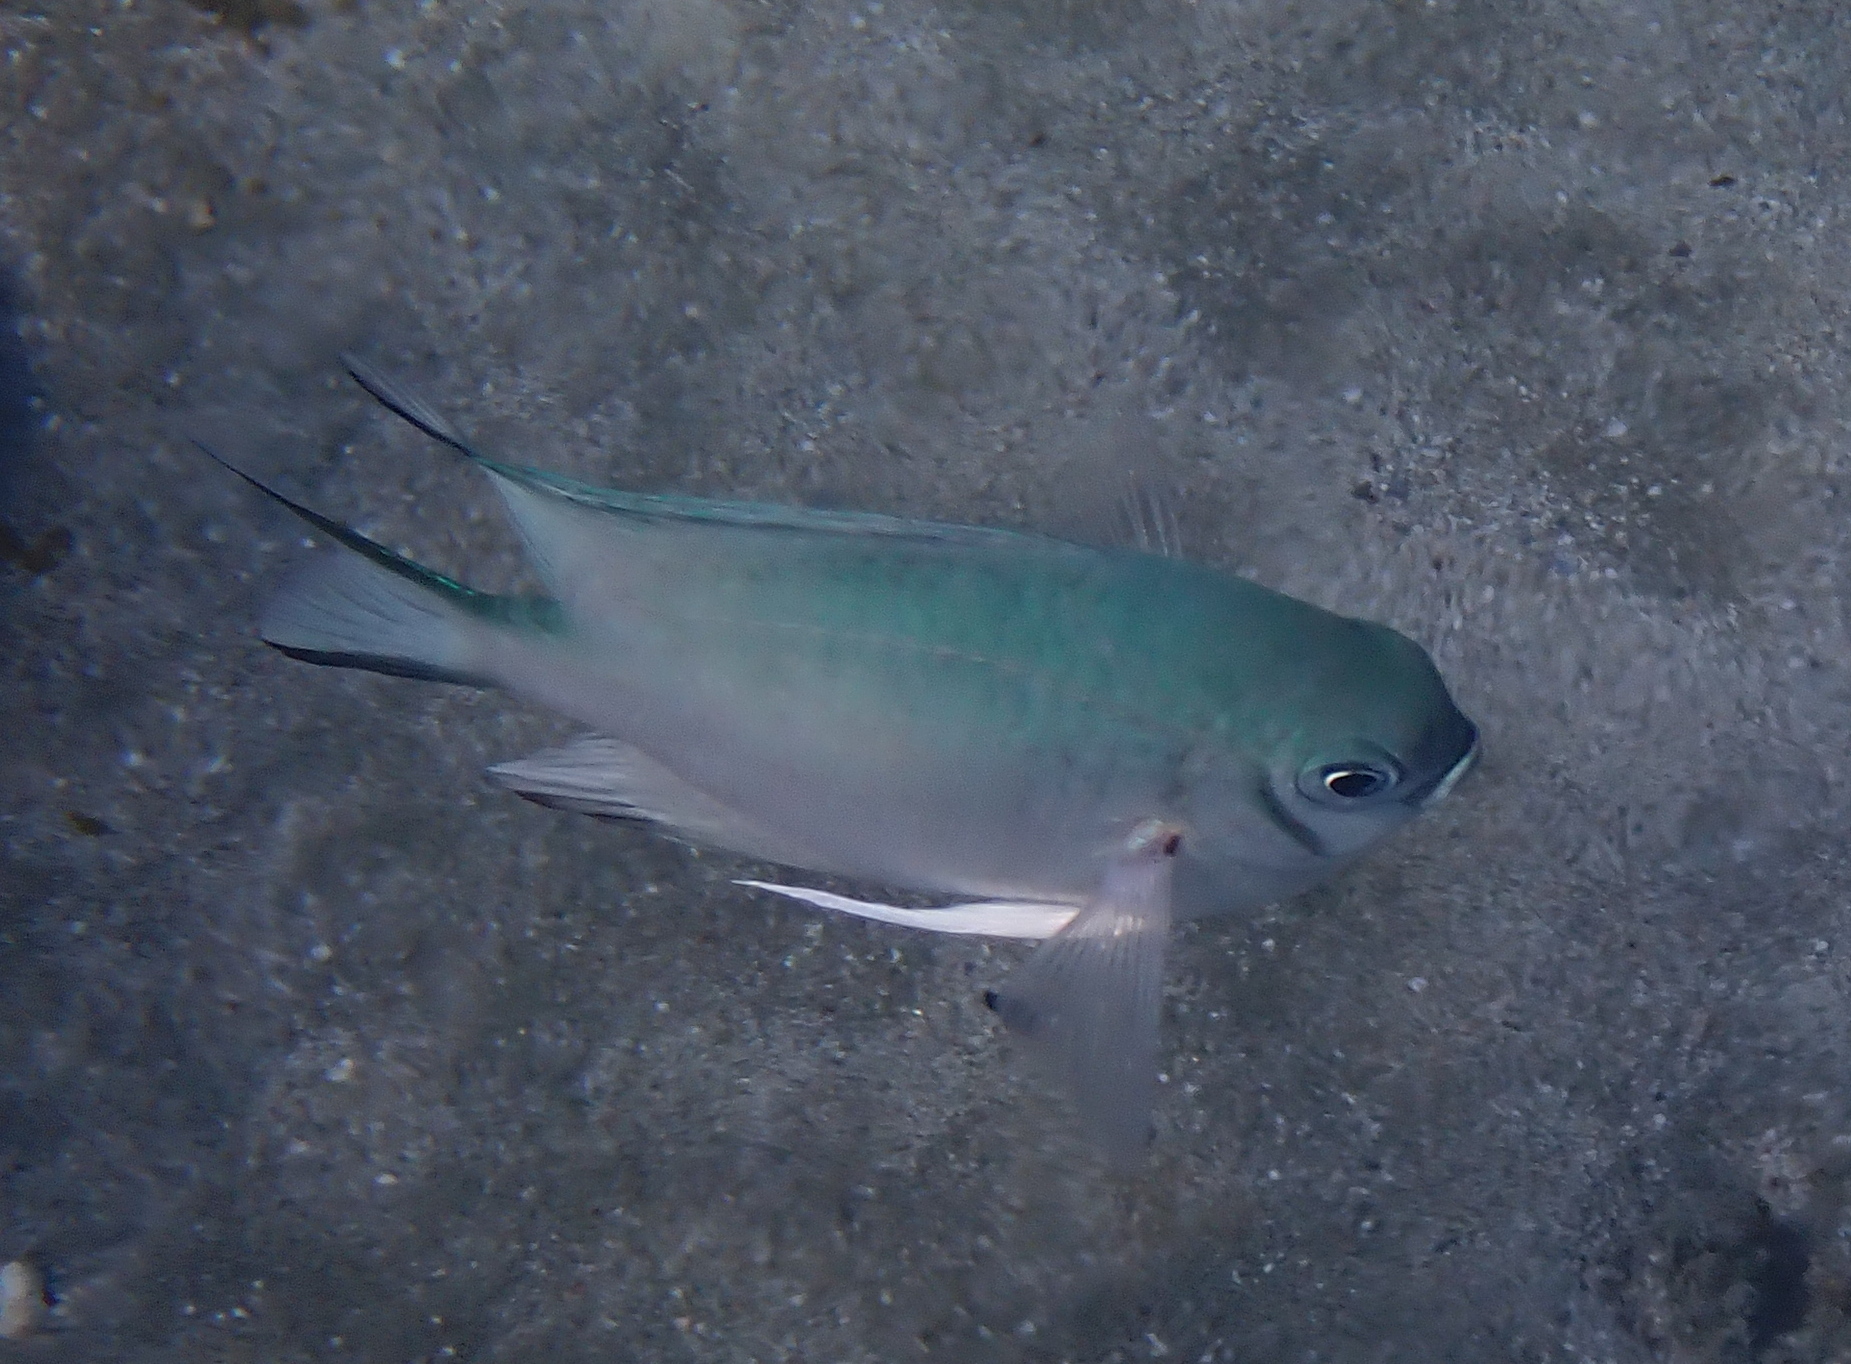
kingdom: Animalia
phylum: Chordata
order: Perciformes
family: Pomacentridae
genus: Amblyglyphidodon
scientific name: Amblyglyphidodon indicus
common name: Maldives damselfish
